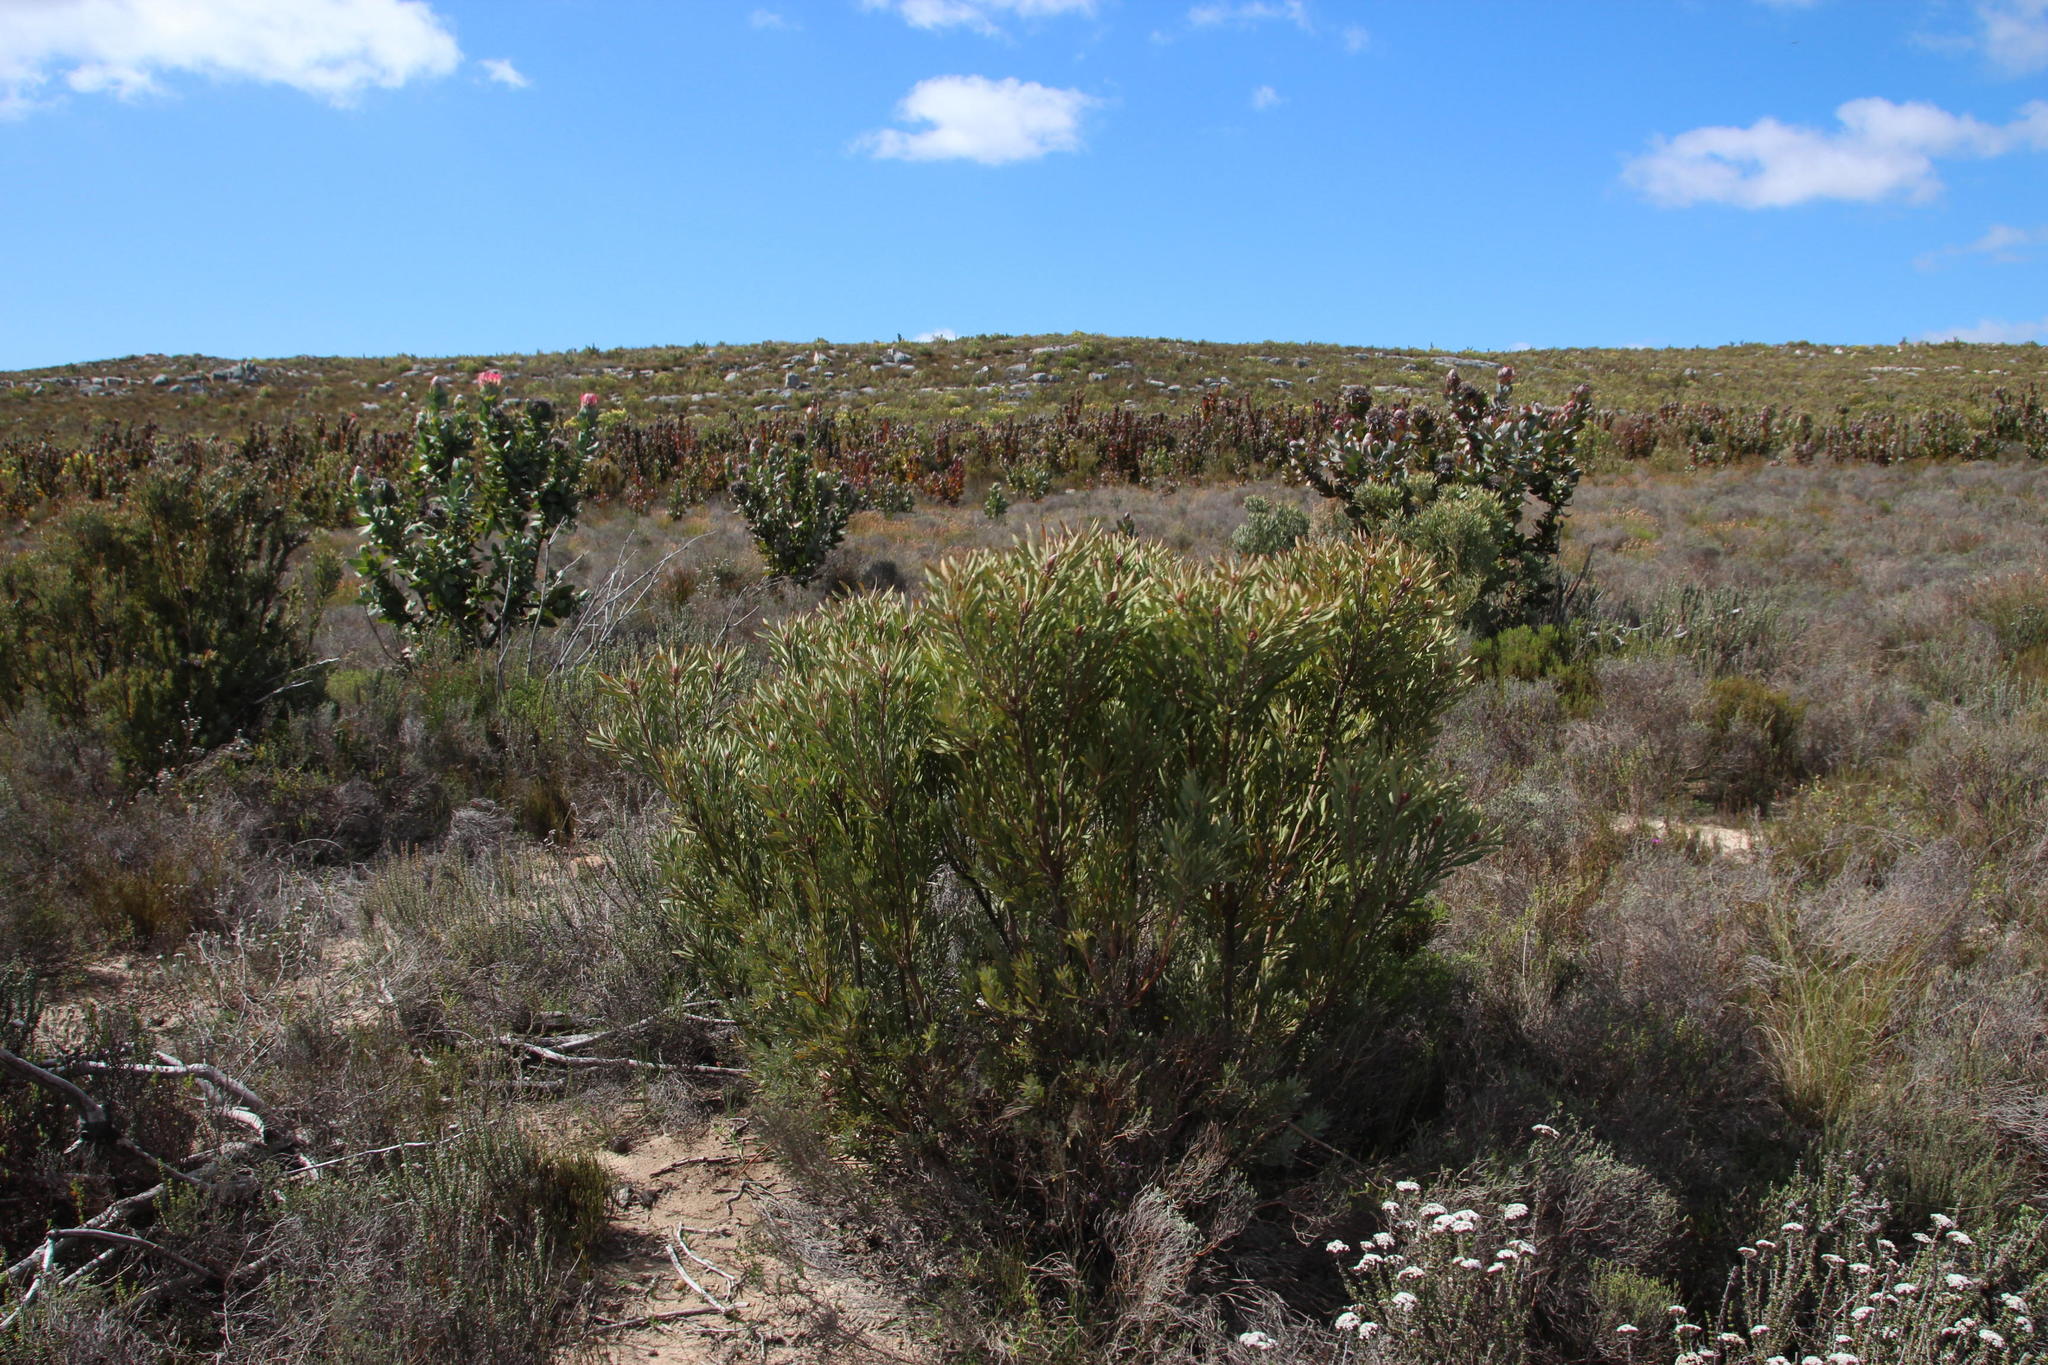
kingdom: Plantae
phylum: Tracheophyta
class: Magnoliopsida
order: Proteales
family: Proteaceae
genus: Leucadendron
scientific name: Leucadendron rubrum
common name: Spinning top
